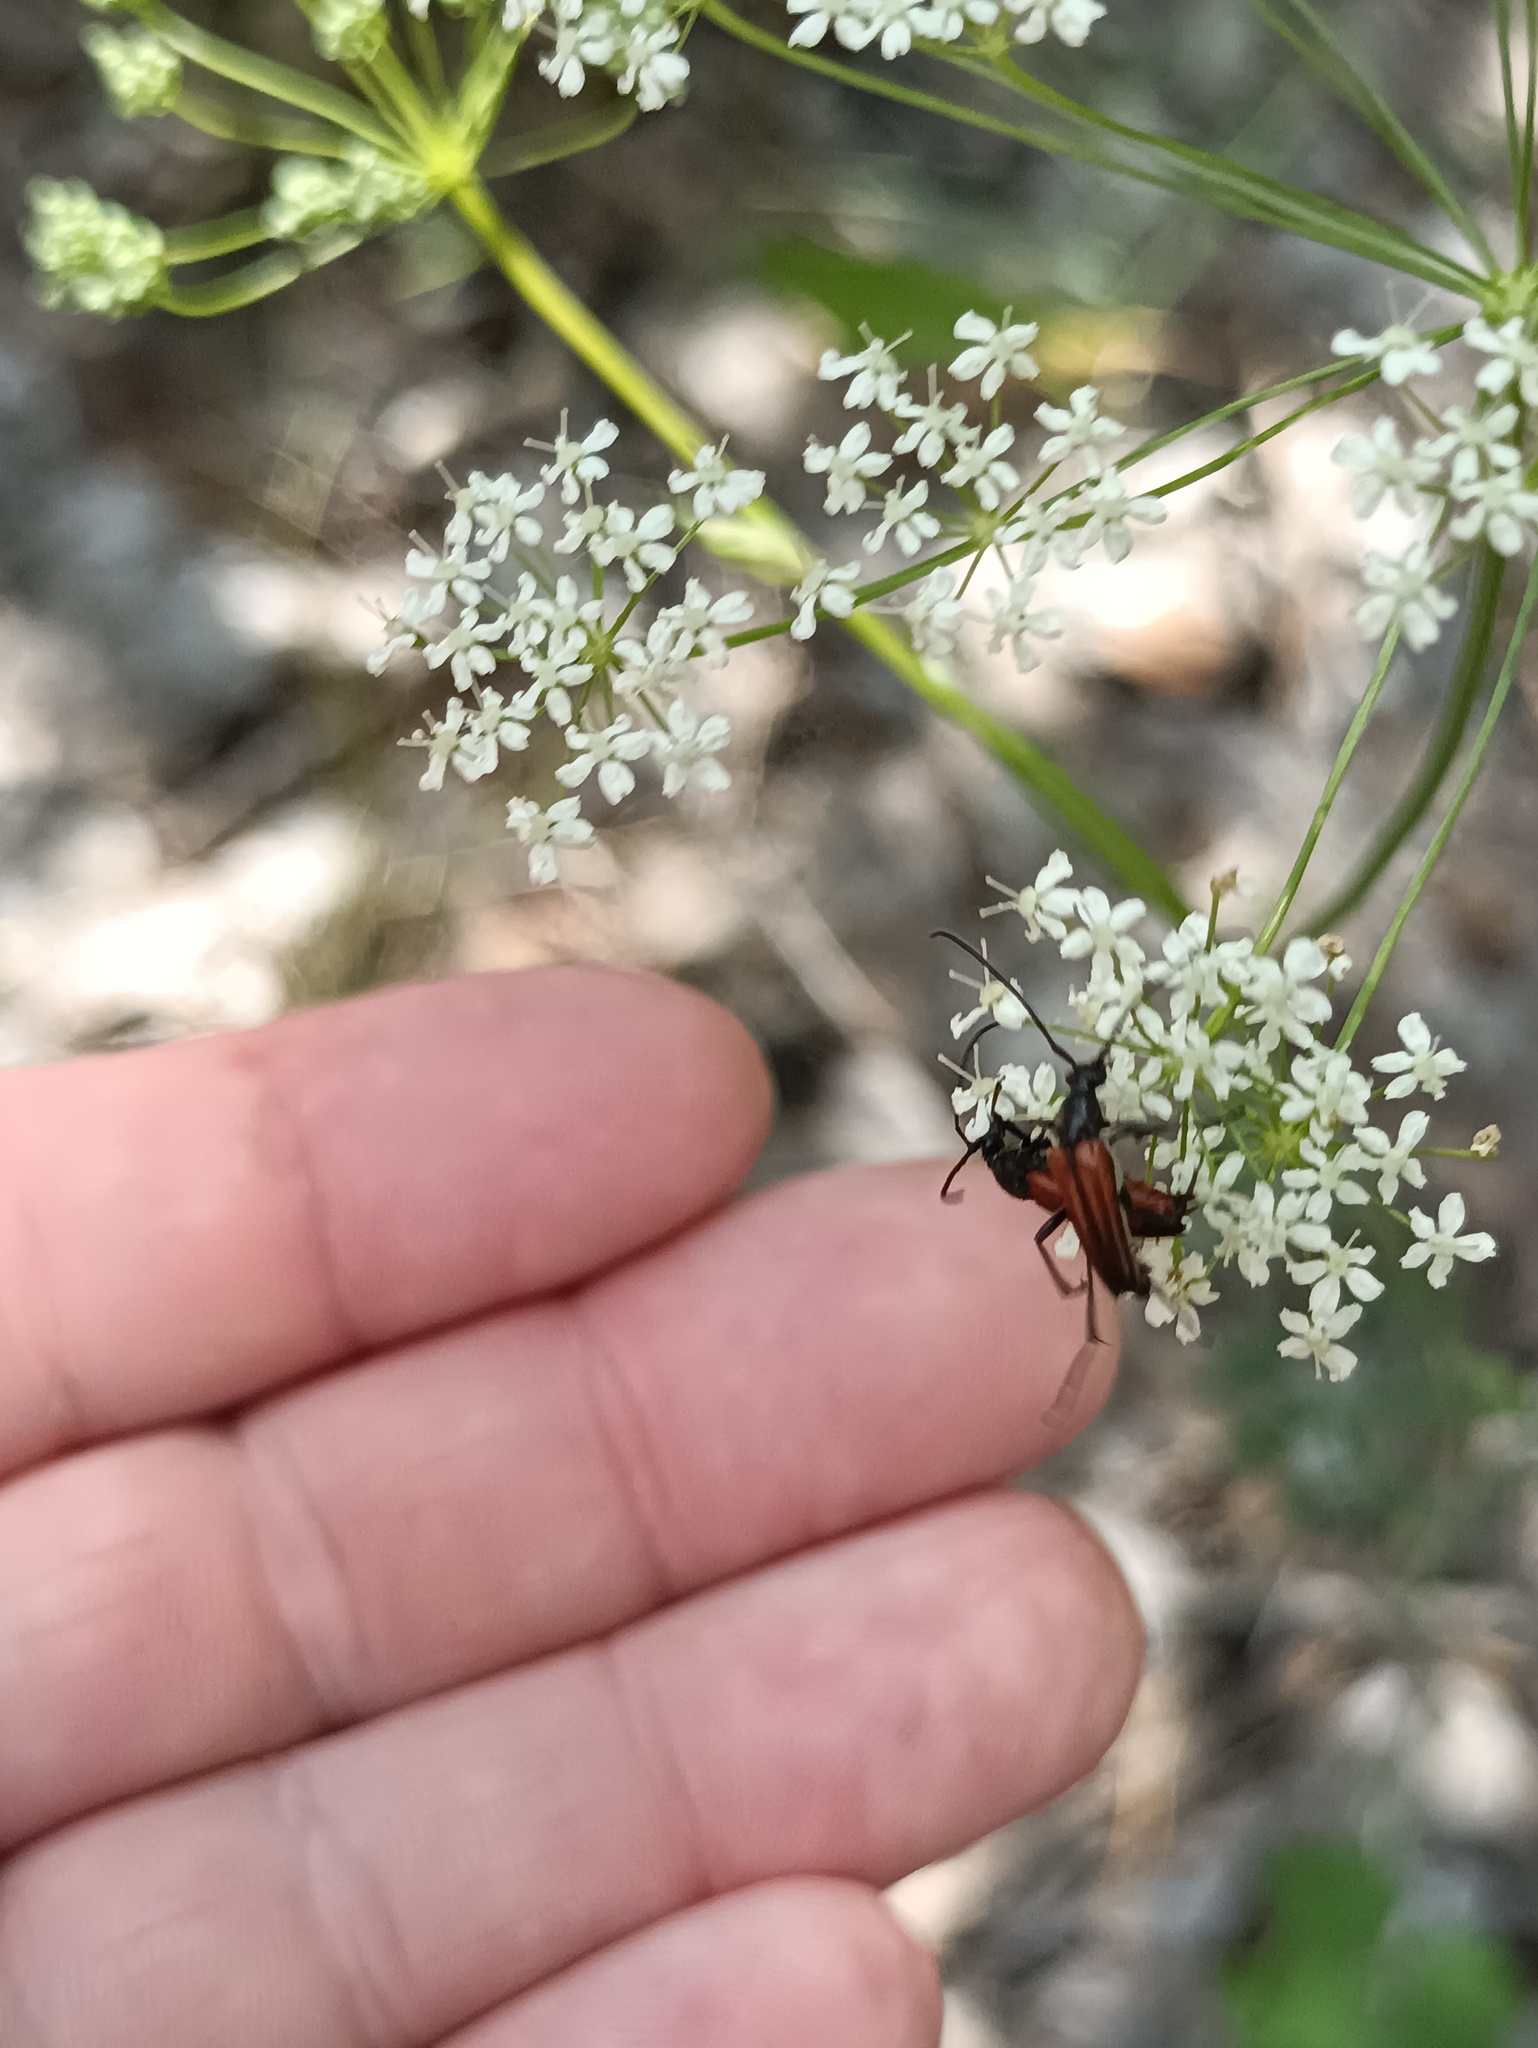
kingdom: Animalia
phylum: Arthropoda
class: Insecta
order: Coleoptera
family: Cerambycidae
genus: Stenurella
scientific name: Stenurella bifasciata
